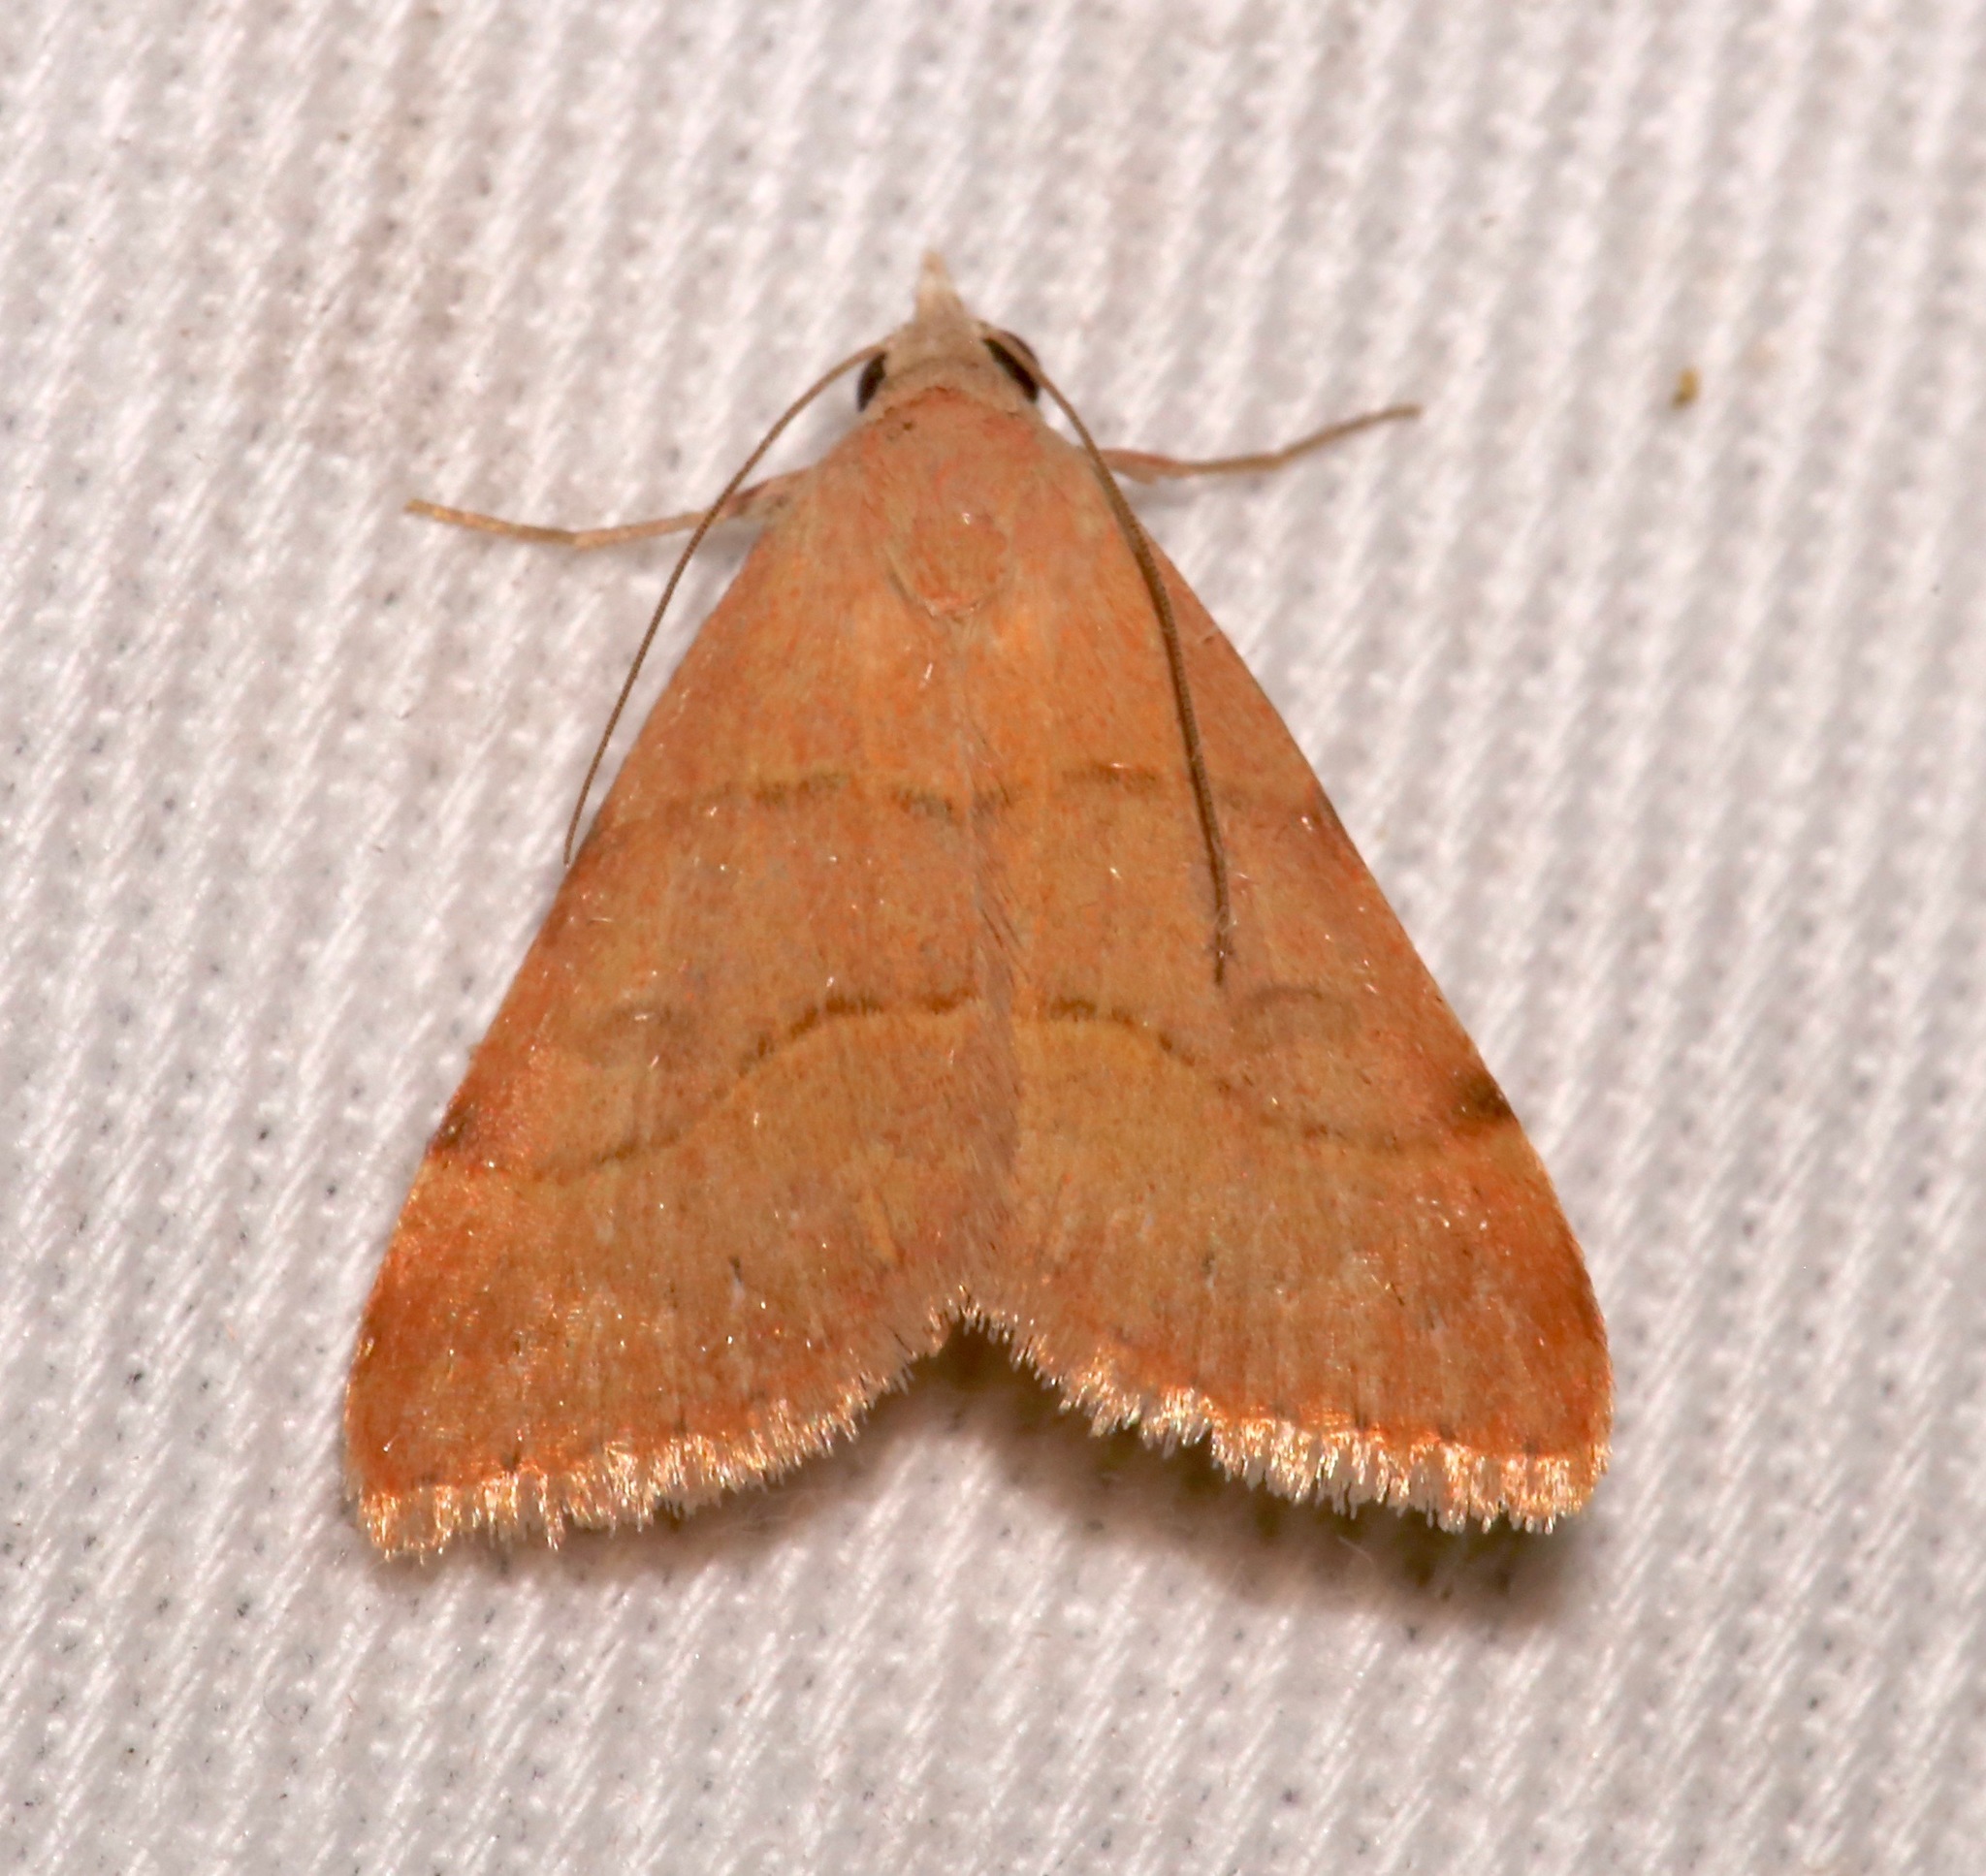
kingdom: Animalia
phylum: Arthropoda
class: Insecta
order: Lepidoptera
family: Erebidae
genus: Hemeroplanis
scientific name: Hemeroplanis rectalis
